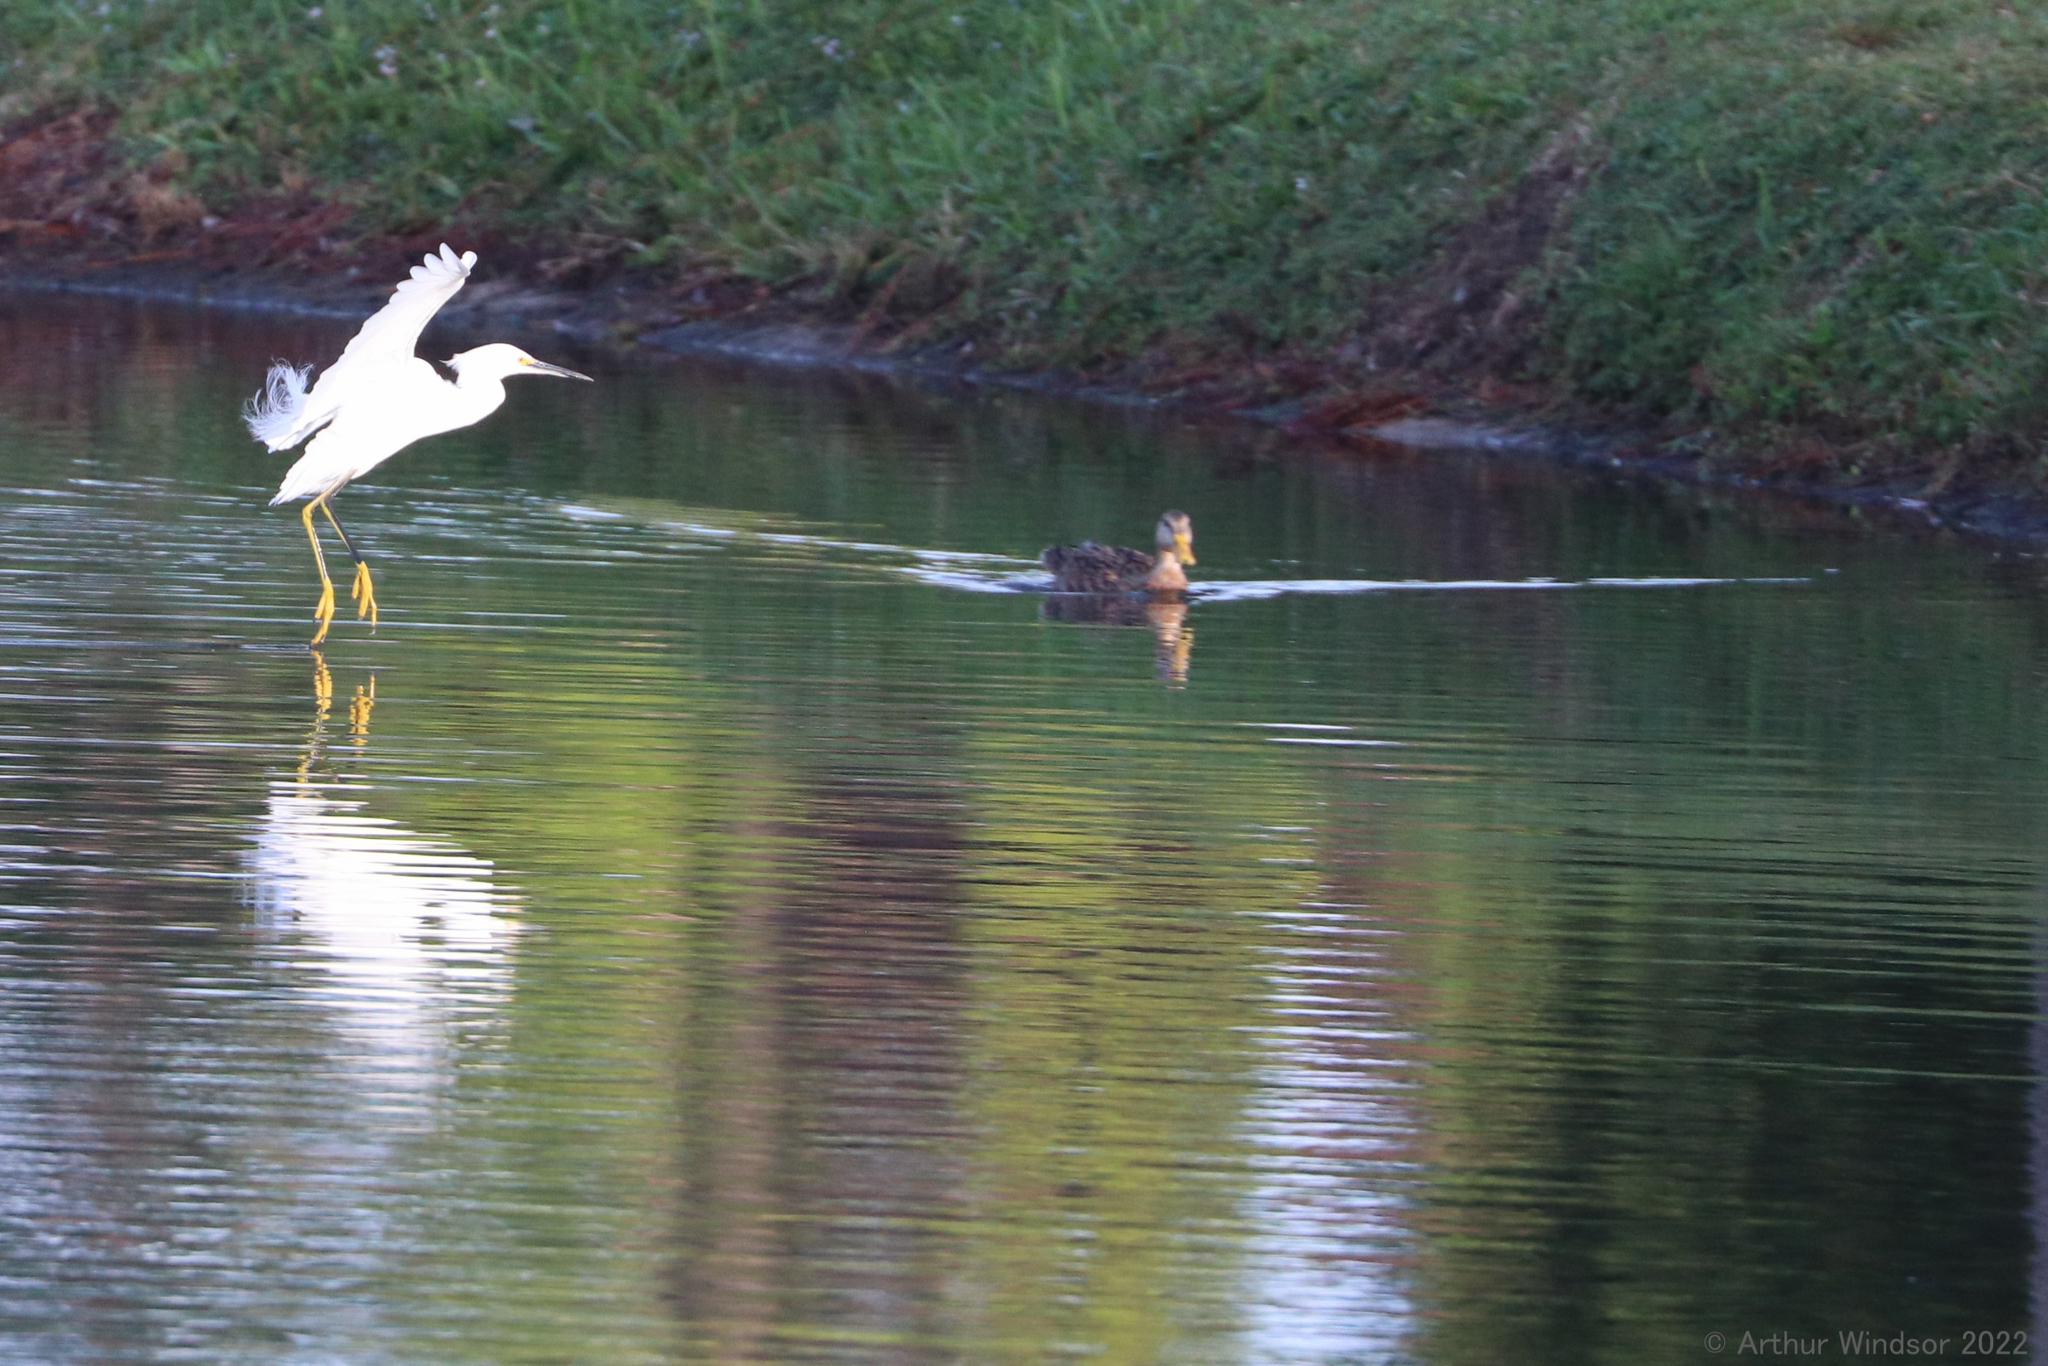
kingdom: Animalia
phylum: Chordata
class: Aves
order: Pelecaniformes
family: Ardeidae
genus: Egretta
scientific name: Egretta thula
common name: Snowy egret
